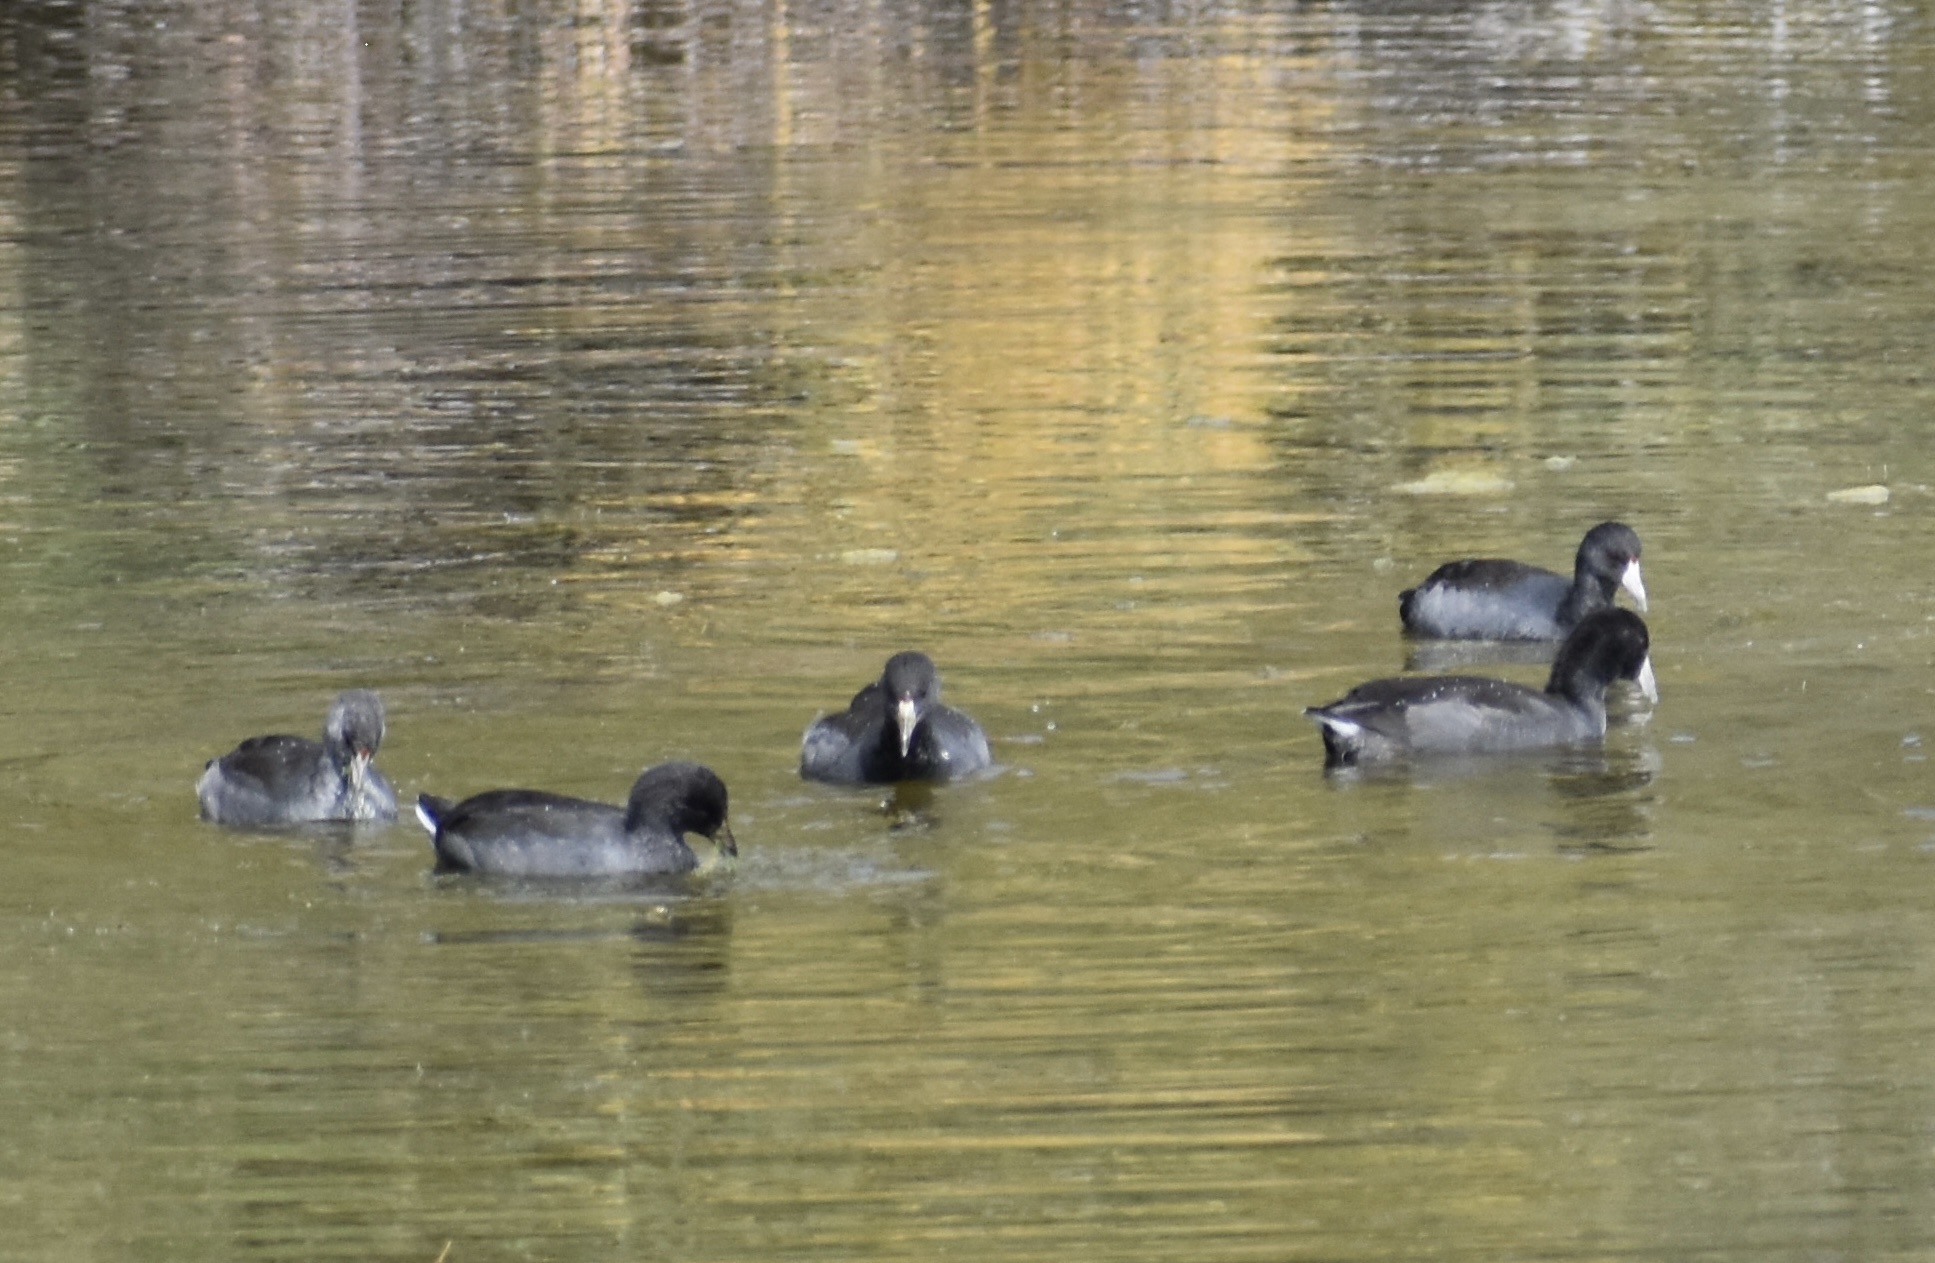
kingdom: Animalia
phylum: Chordata
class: Aves
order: Gruiformes
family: Rallidae
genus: Fulica
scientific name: Fulica americana
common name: American coot
